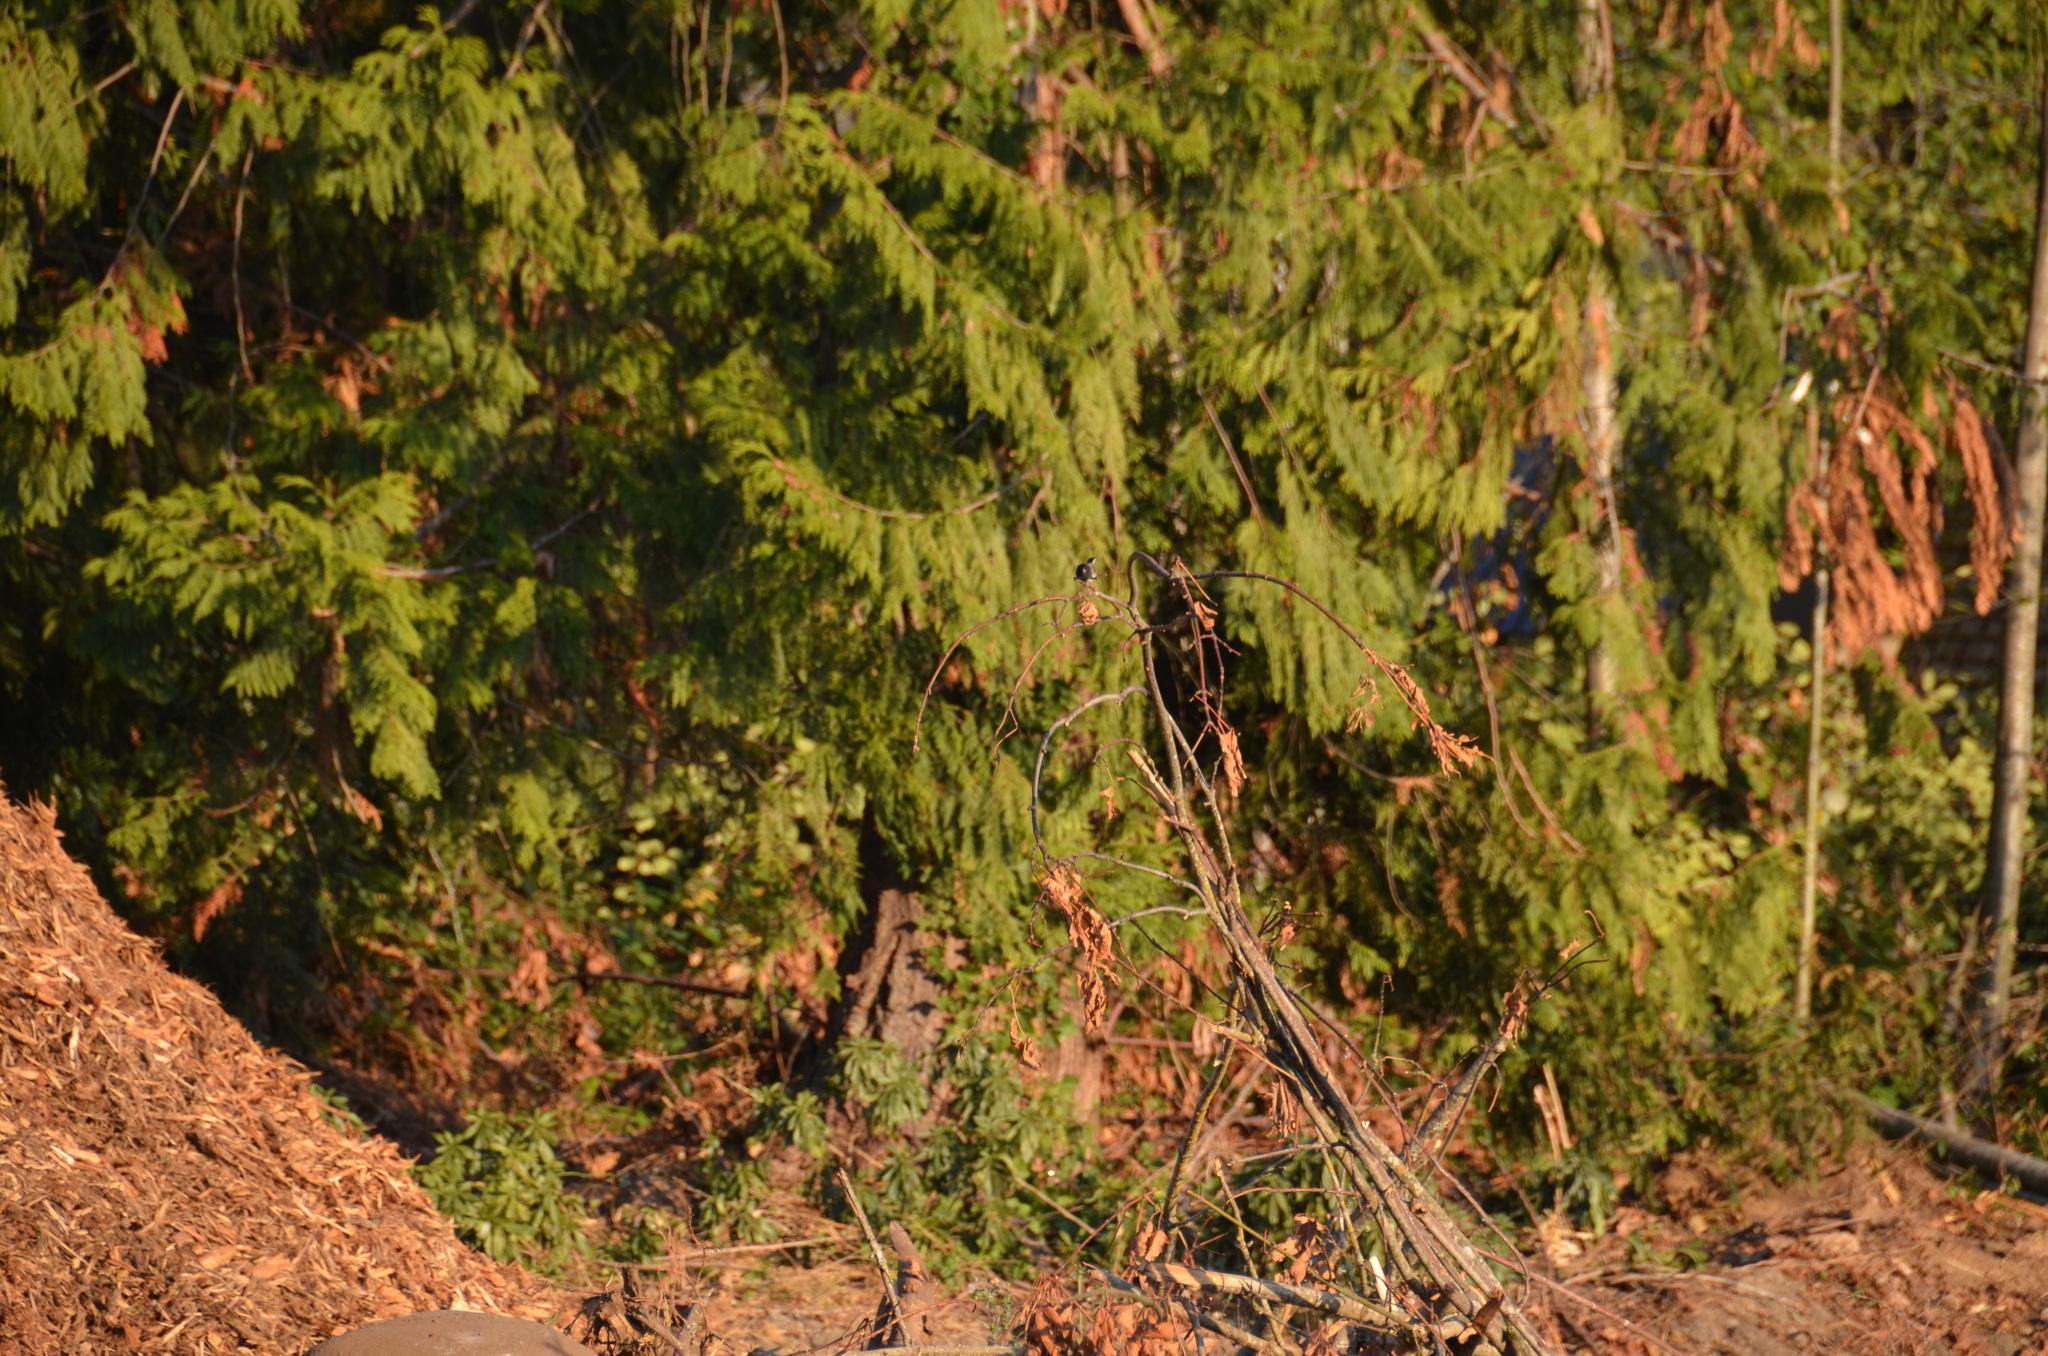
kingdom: Animalia
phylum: Chordata
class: Aves
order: Passeriformes
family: Passerellidae
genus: Junco
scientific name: Junco hyemalis
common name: Dark-eyed junco
